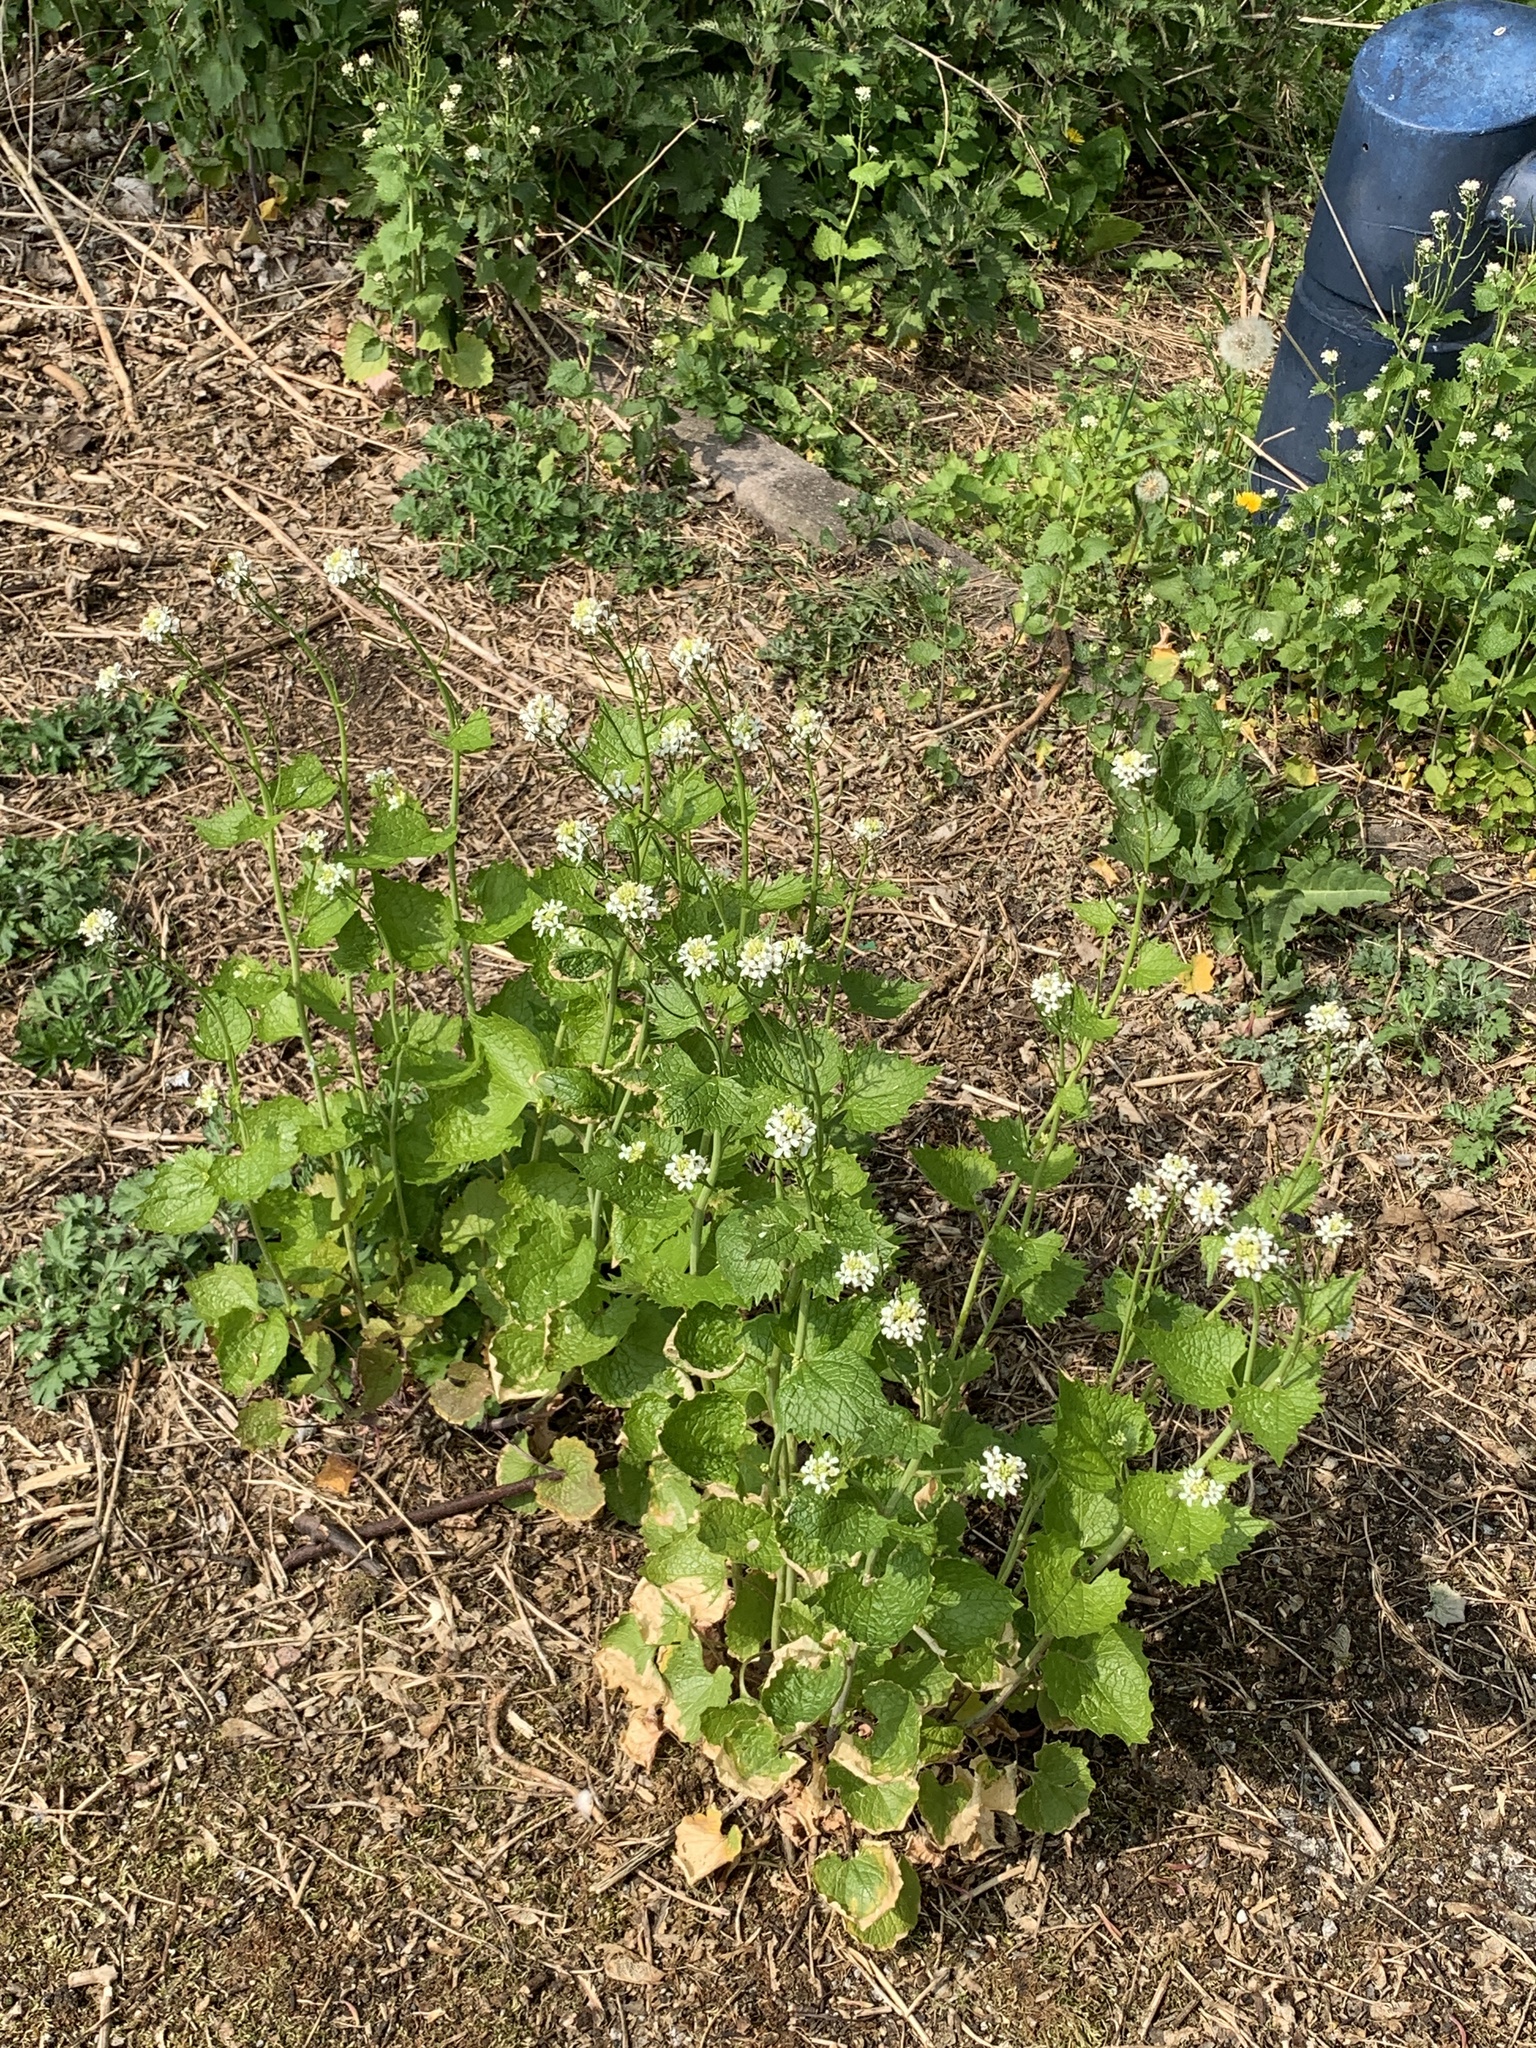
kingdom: Plantae
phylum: Tracheophyta
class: Magnoliopsida
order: Brassicales
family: Brassicaceae
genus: Alliaria
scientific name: Alliaria petiolata
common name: Garlic mustard
